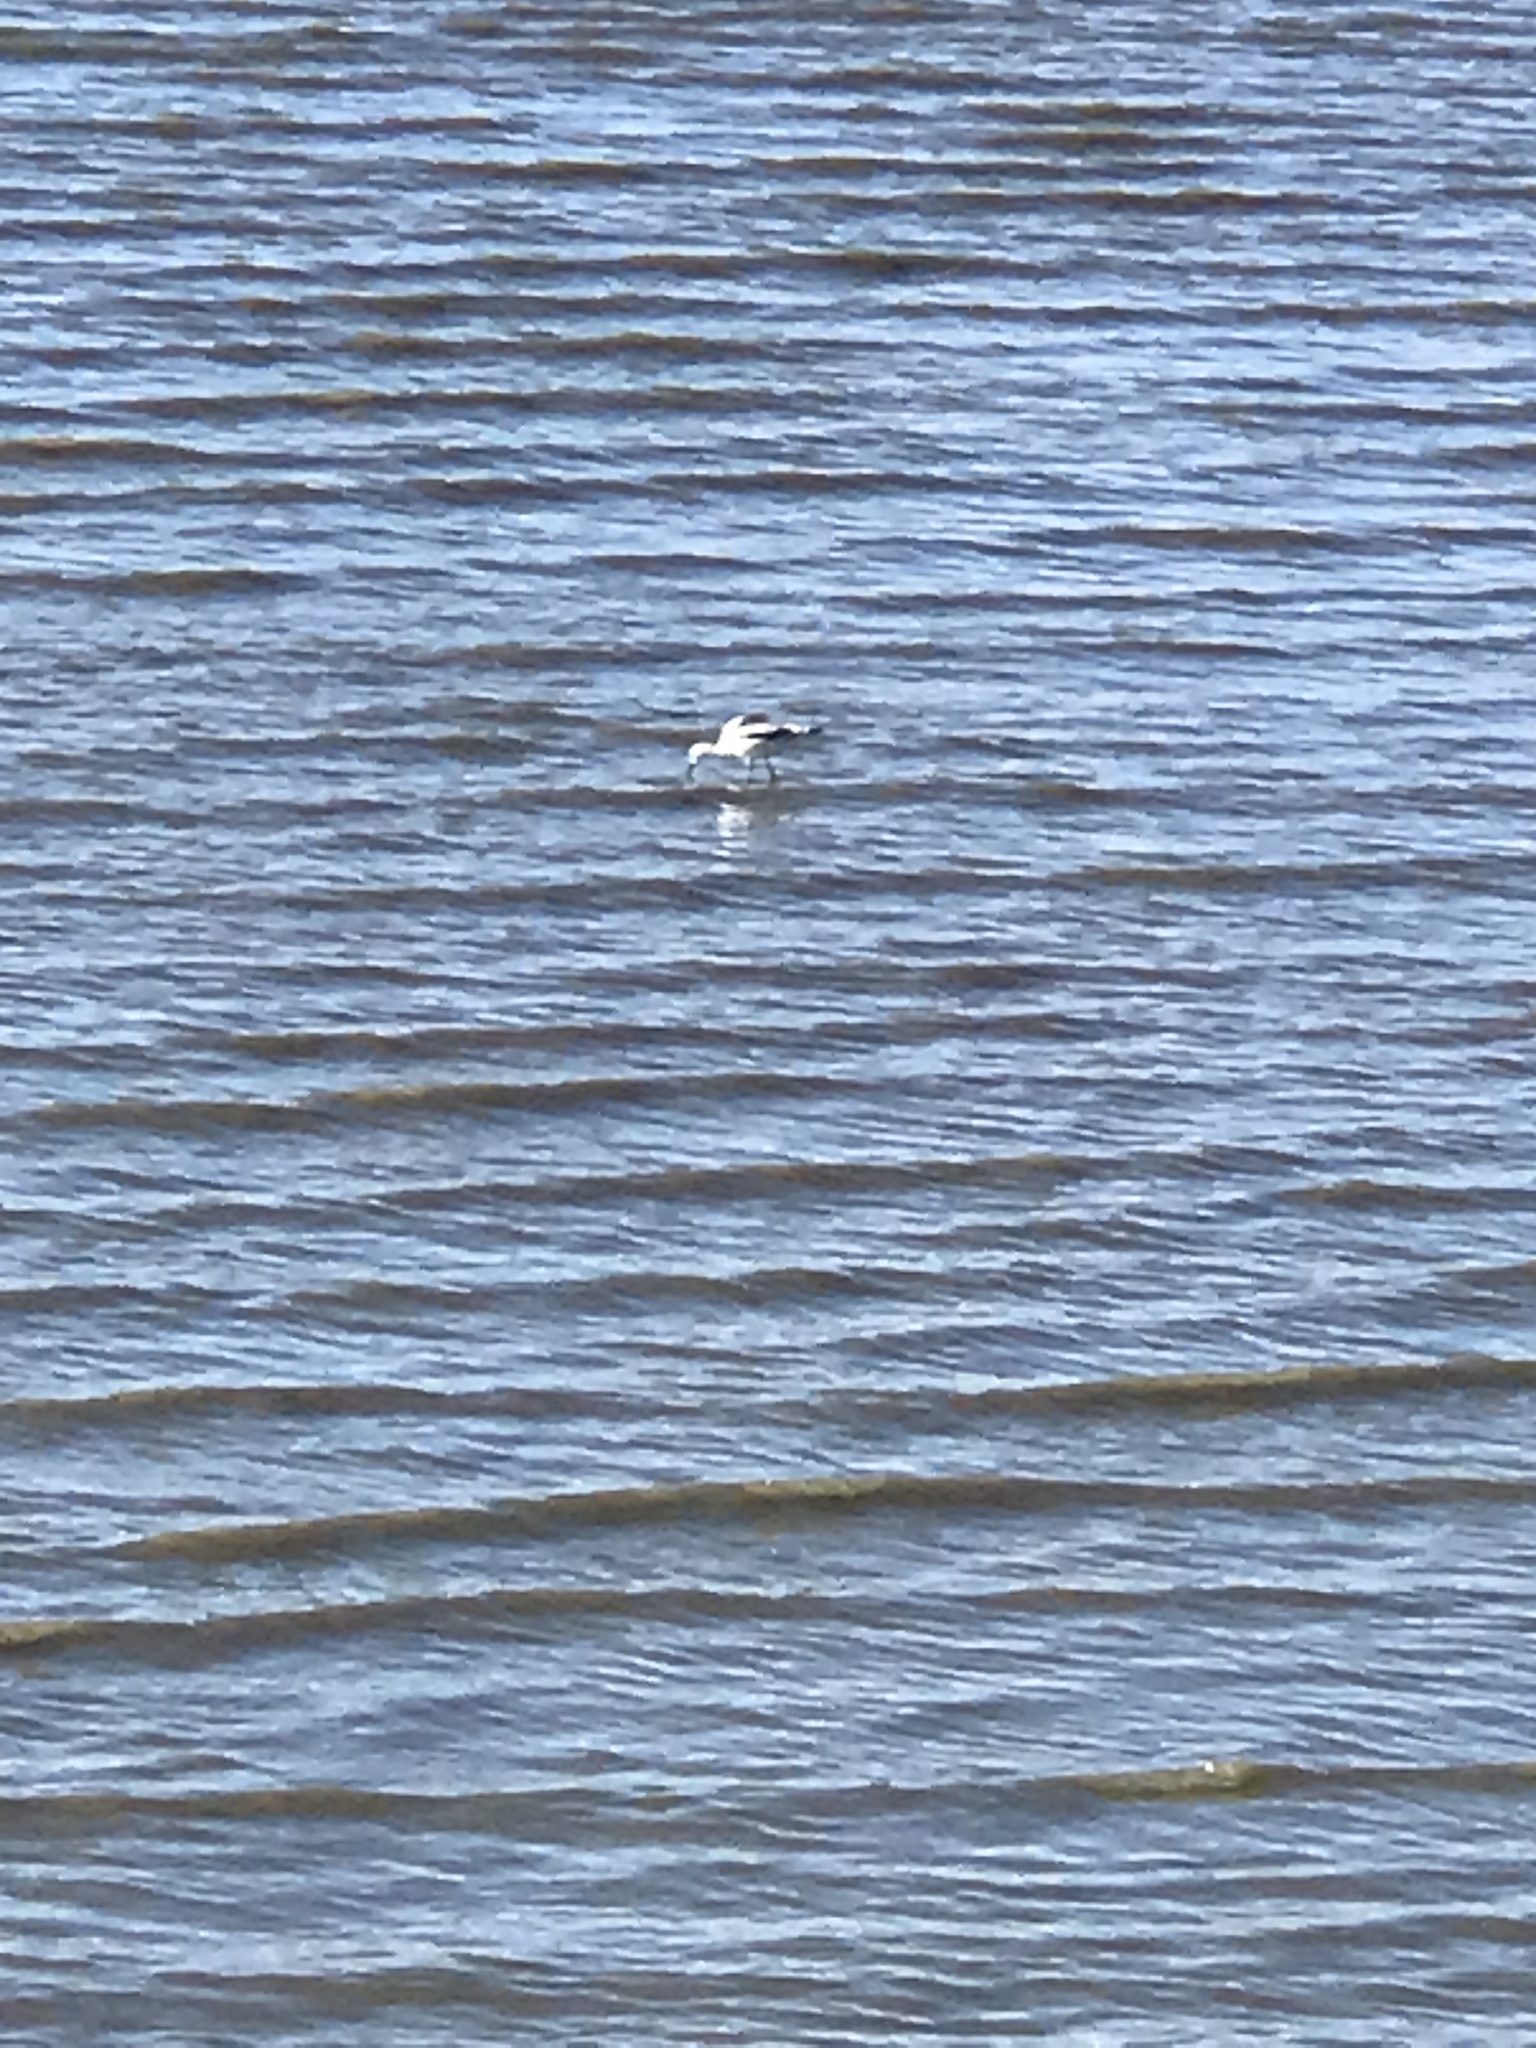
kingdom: Animalia
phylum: Chordata
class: Aves
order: Charadriiformes
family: Recurvirostridae
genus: Recurvirostra
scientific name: Recurvirostra americana
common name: American avocet
